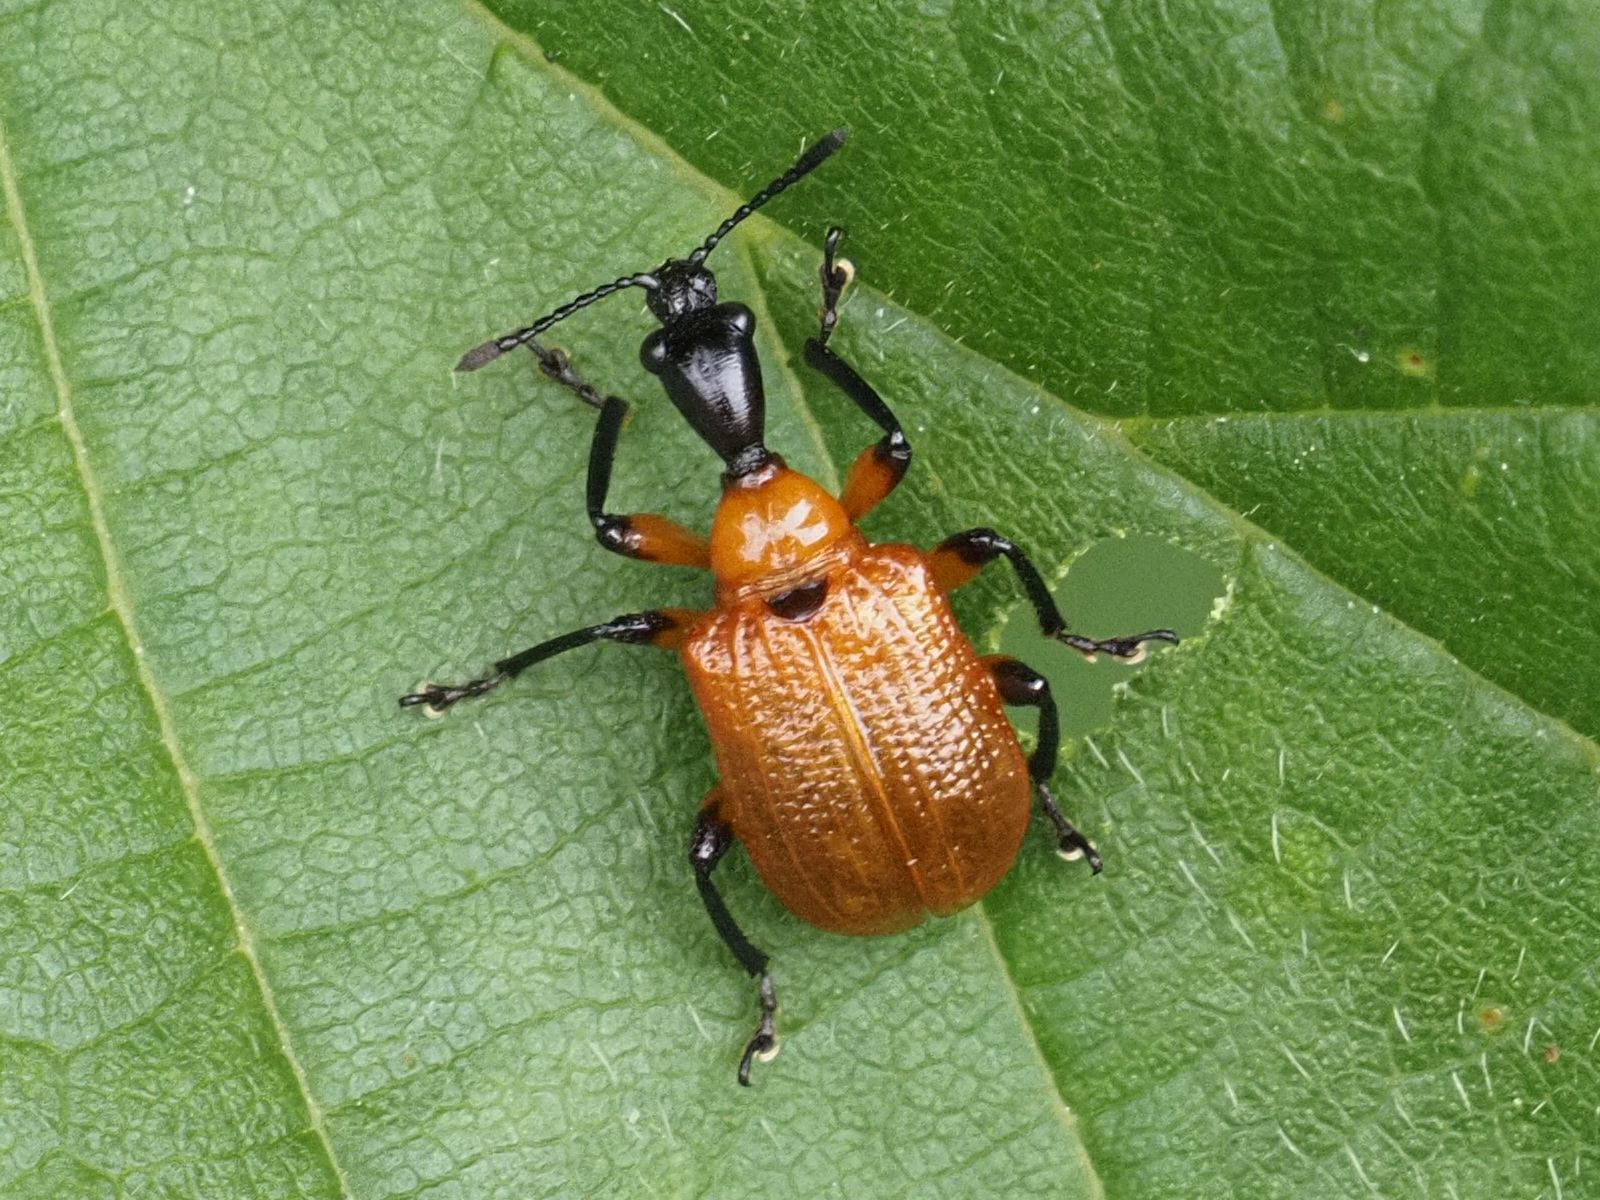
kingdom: Animalia
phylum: Arthropoda
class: Insecta
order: Coleoptera
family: Attelabidae
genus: Apoderus
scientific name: Apoderus coryli
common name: Hazel leaf roller
